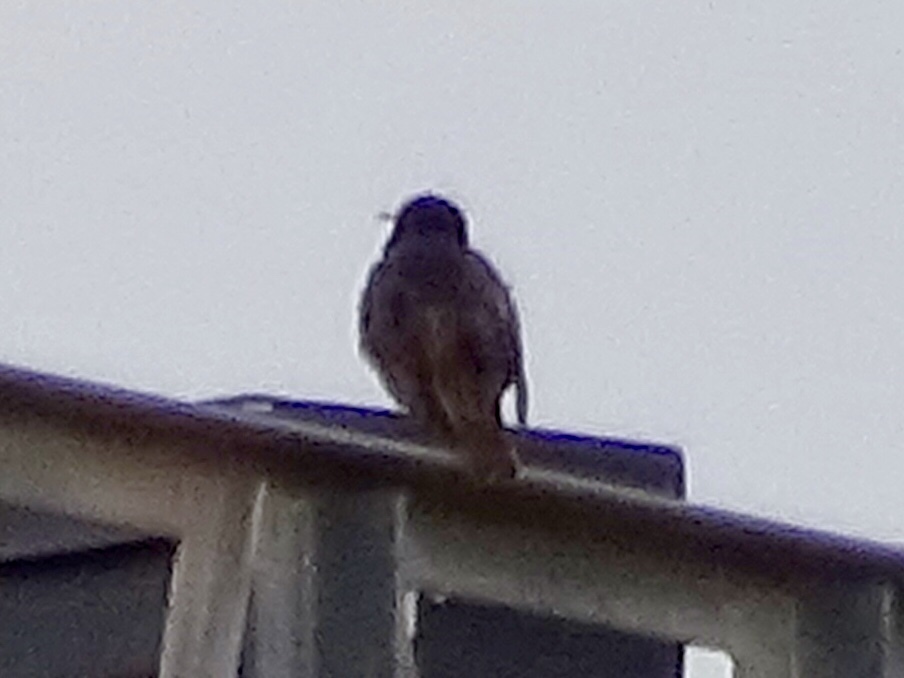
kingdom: Animalia
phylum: Chordata
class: Aves
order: Passeriformes
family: Sturnidae
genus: Sturnus
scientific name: Sturnus vulgaris
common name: Common starling
